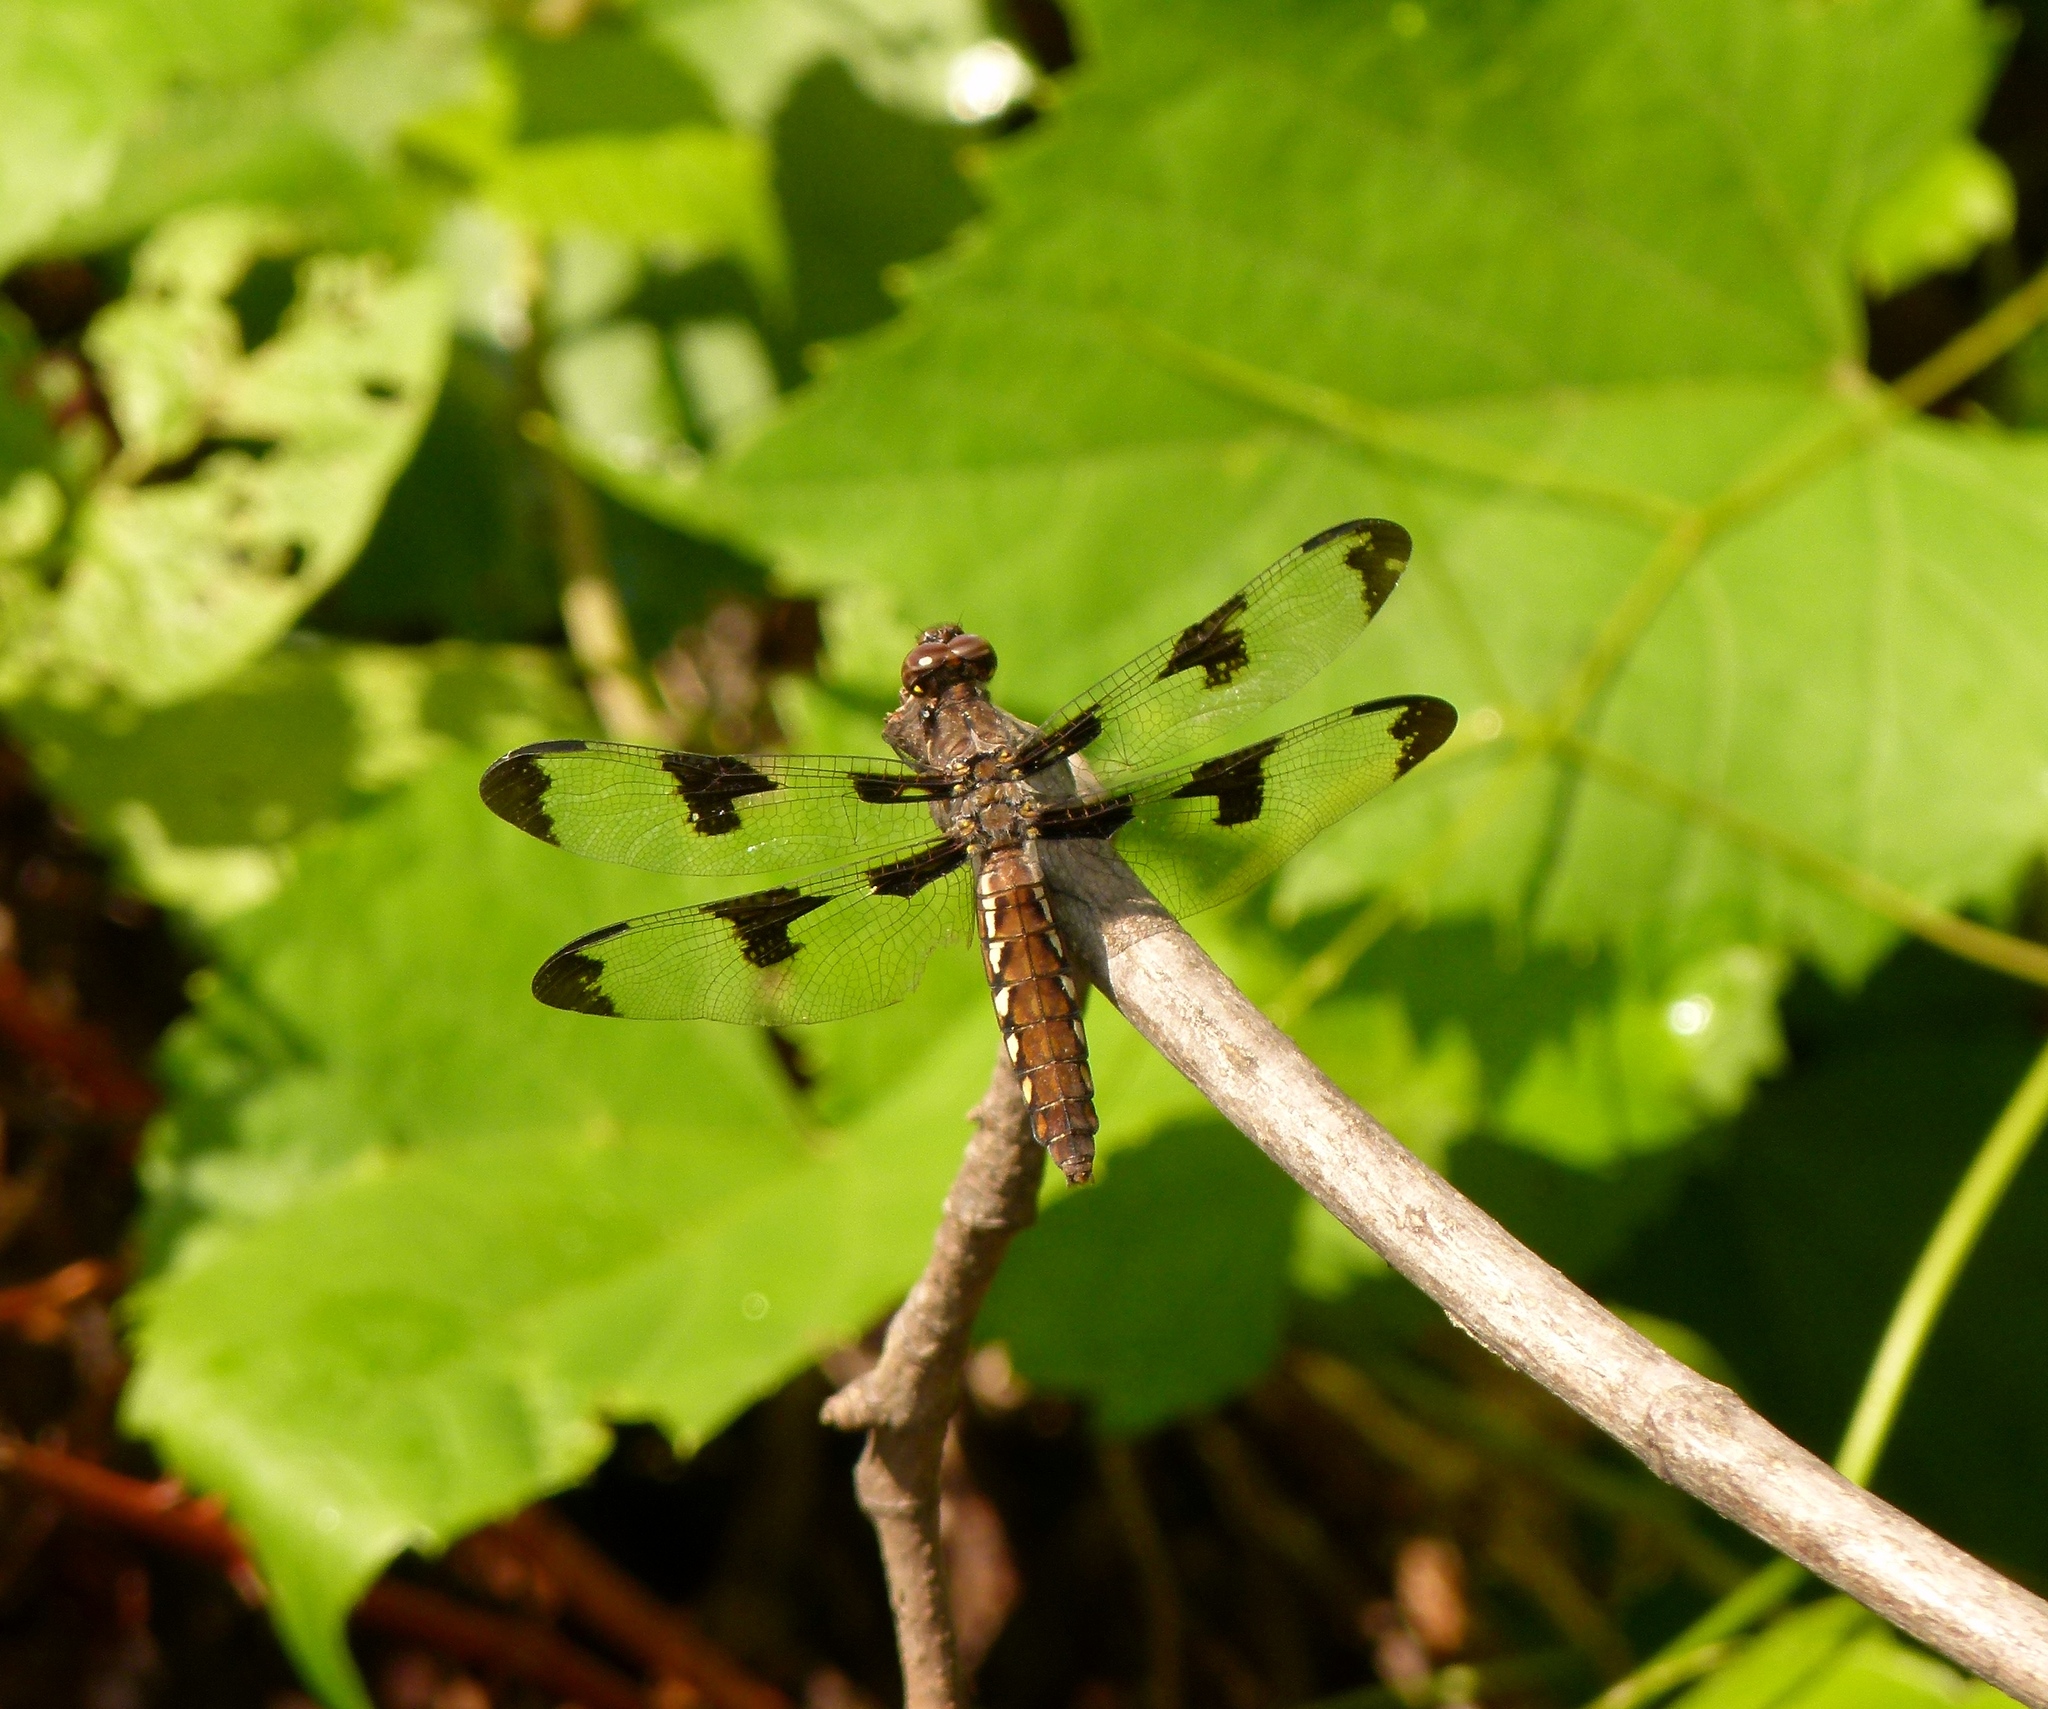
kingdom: Animalia
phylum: Arthropoda
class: Insecta
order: Odonata
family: Libellulidae
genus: Plathemis
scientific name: Plathemis lydia
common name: Common whitetail
